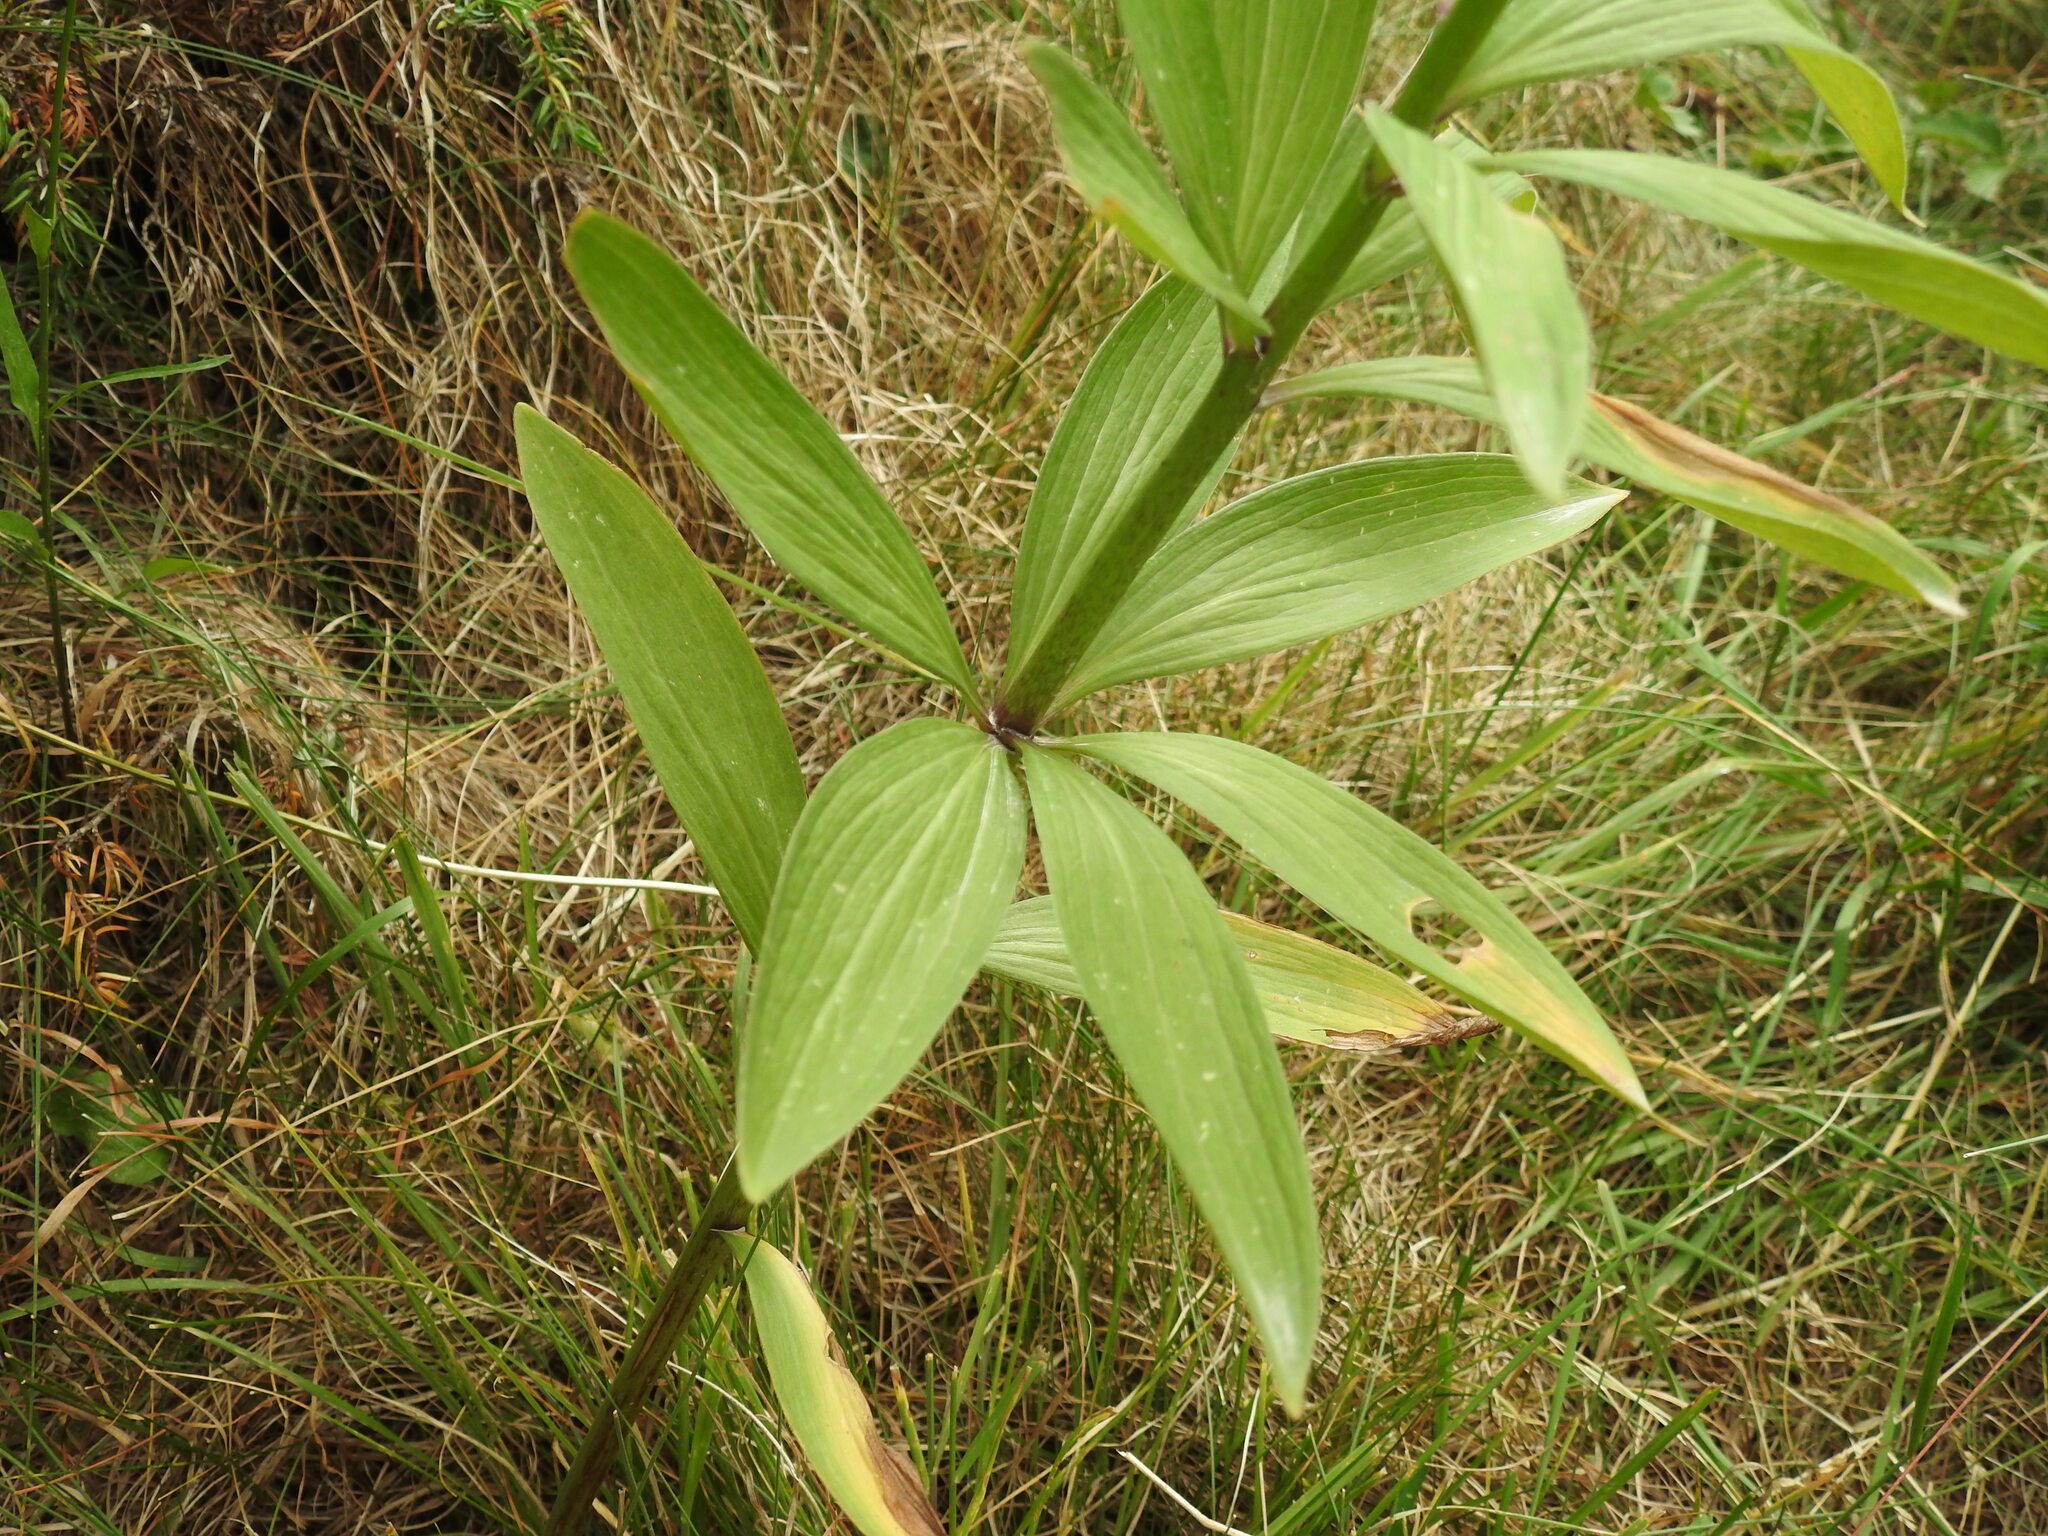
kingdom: Plantae
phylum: Tracheophyta
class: Liliopsida
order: Liliales
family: Liliaceae
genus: Lilium
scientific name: Lilium martagon
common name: Martagon lily
